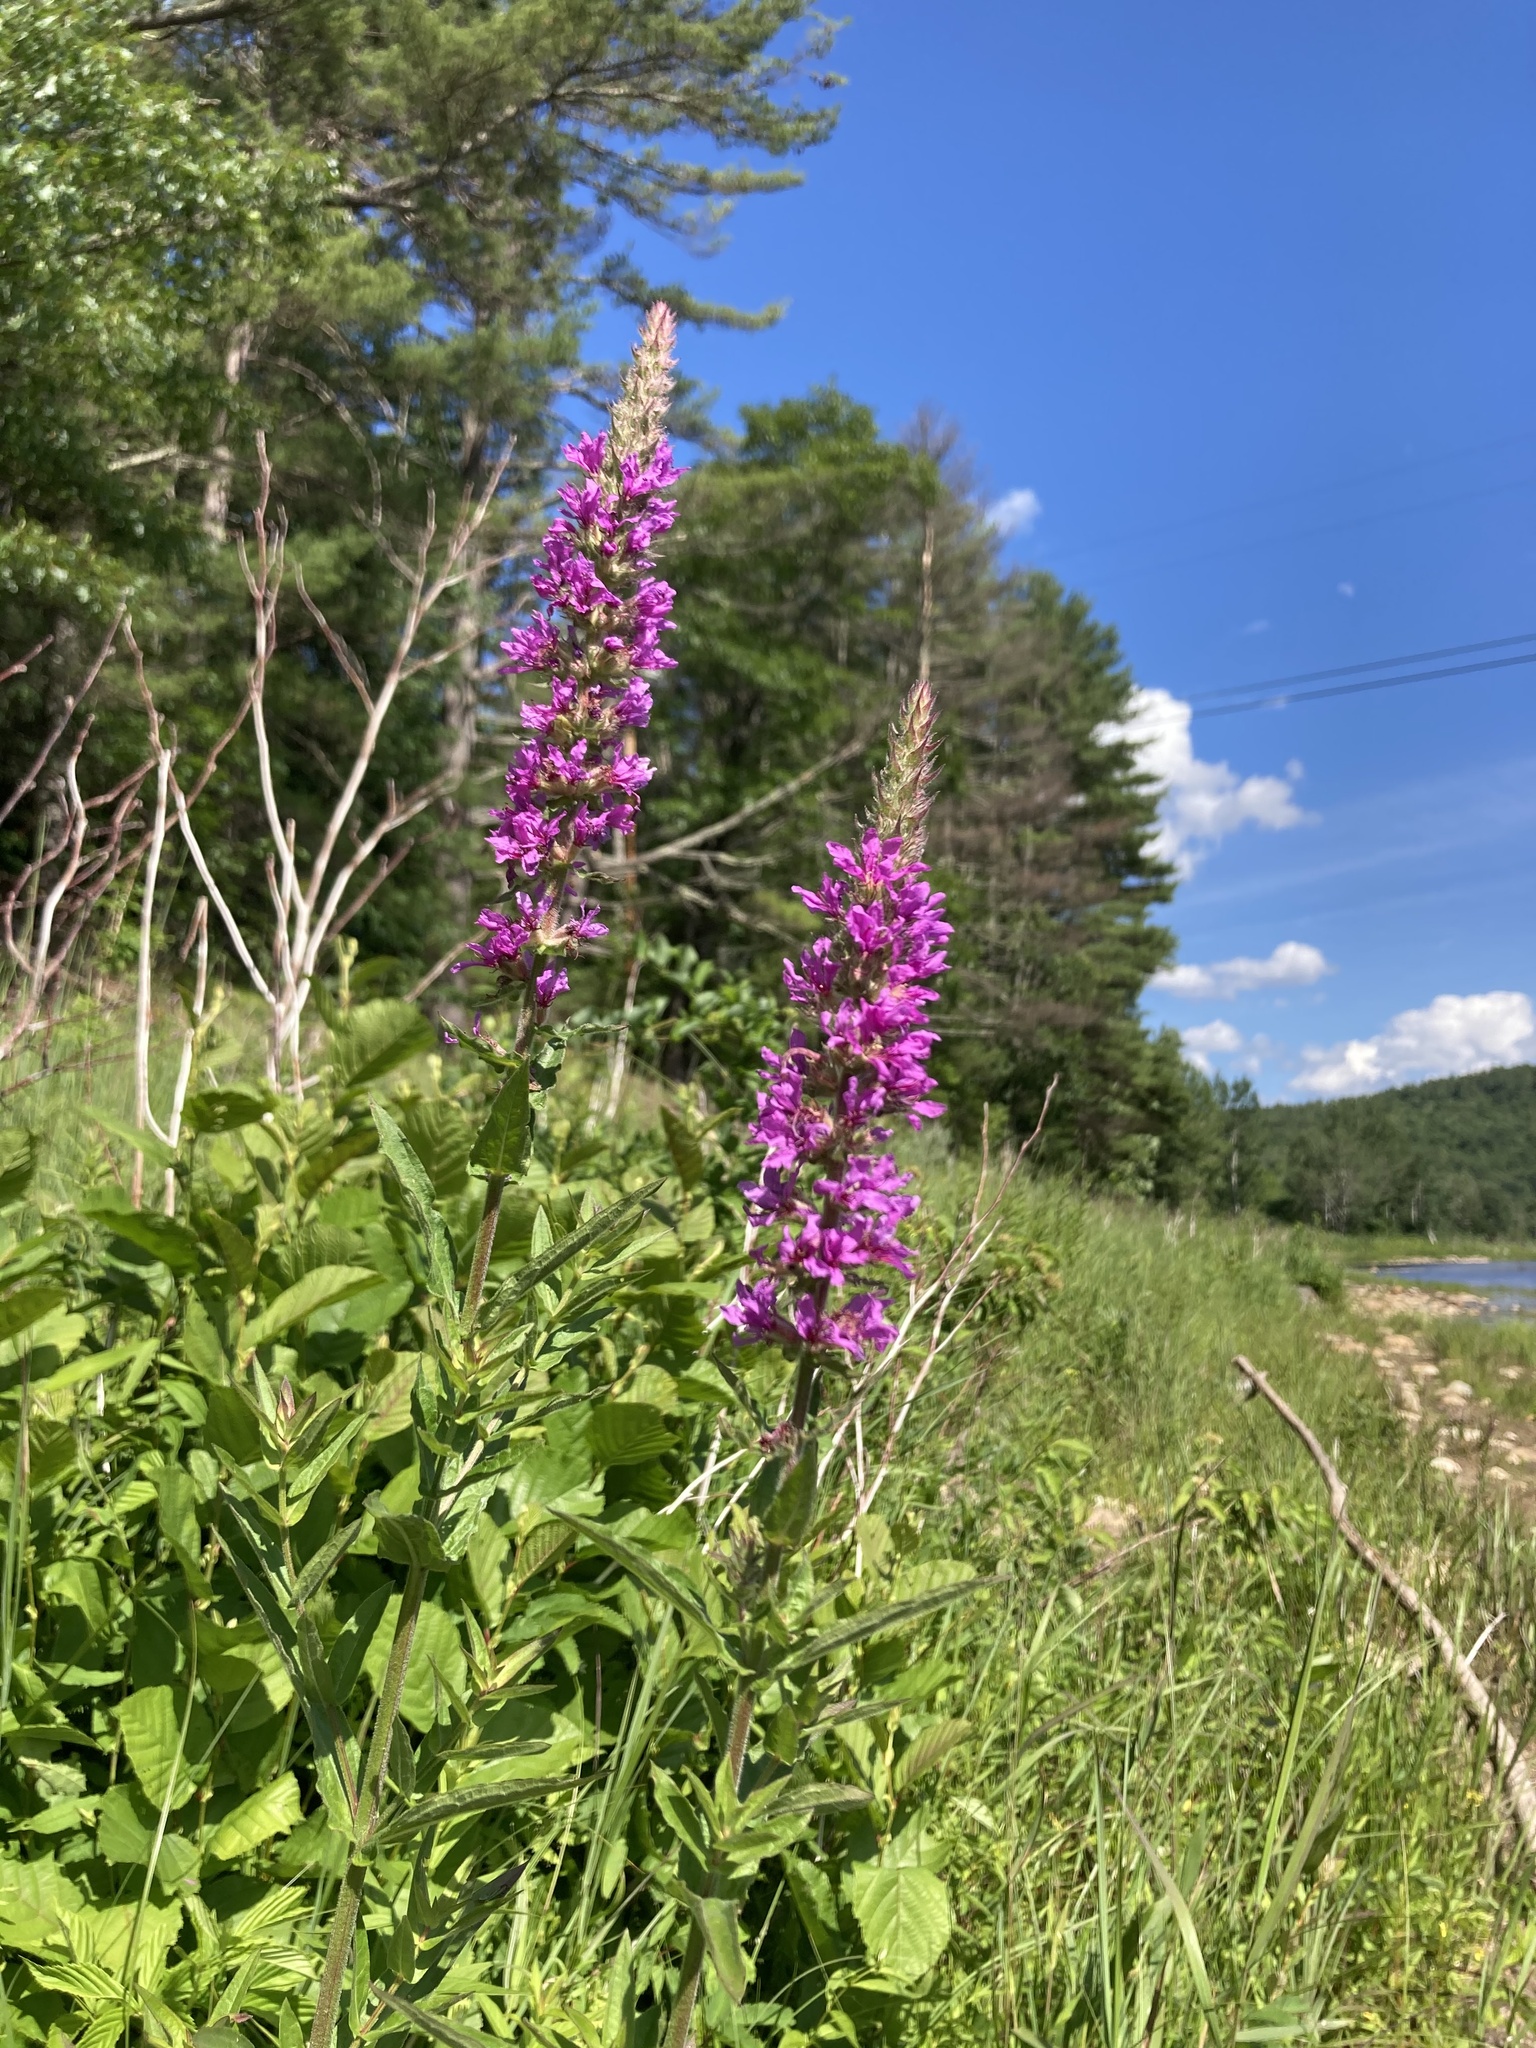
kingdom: Plantae
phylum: Tracheophyta
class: Magnoliopsida
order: Myrtales
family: Lythraceae
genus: Lythrum
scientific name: Lythrum salicaria
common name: Purple loosestrife
